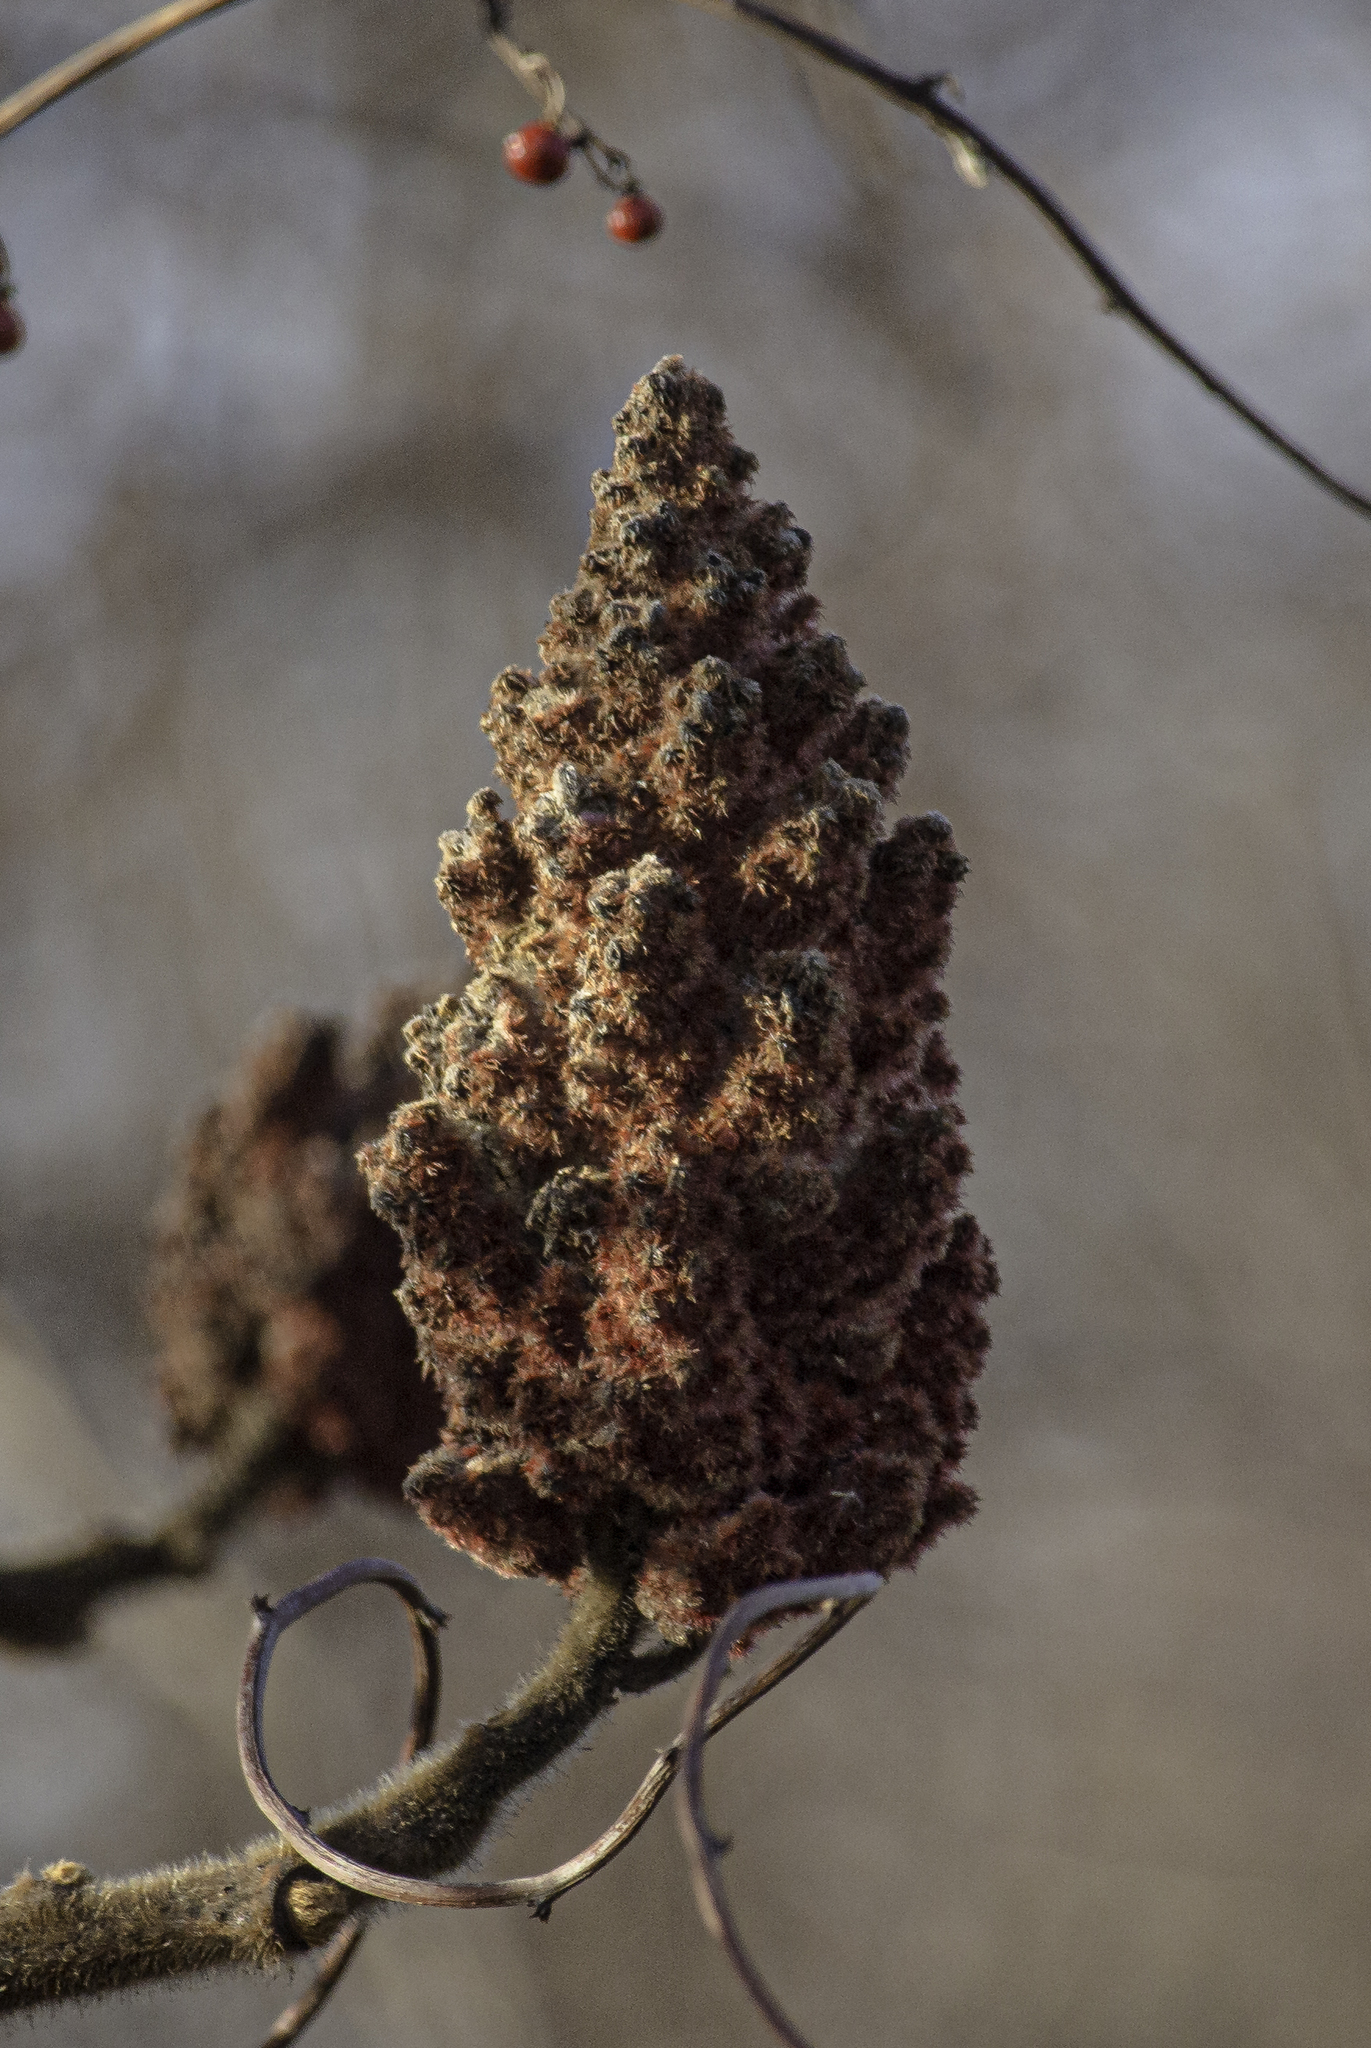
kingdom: Plantae
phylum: Tracheophyta
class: Magnoliopsida
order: Sapindales
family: Anacardiaceae
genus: Rhus
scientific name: Rhus typhina
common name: Staghorn sumac
